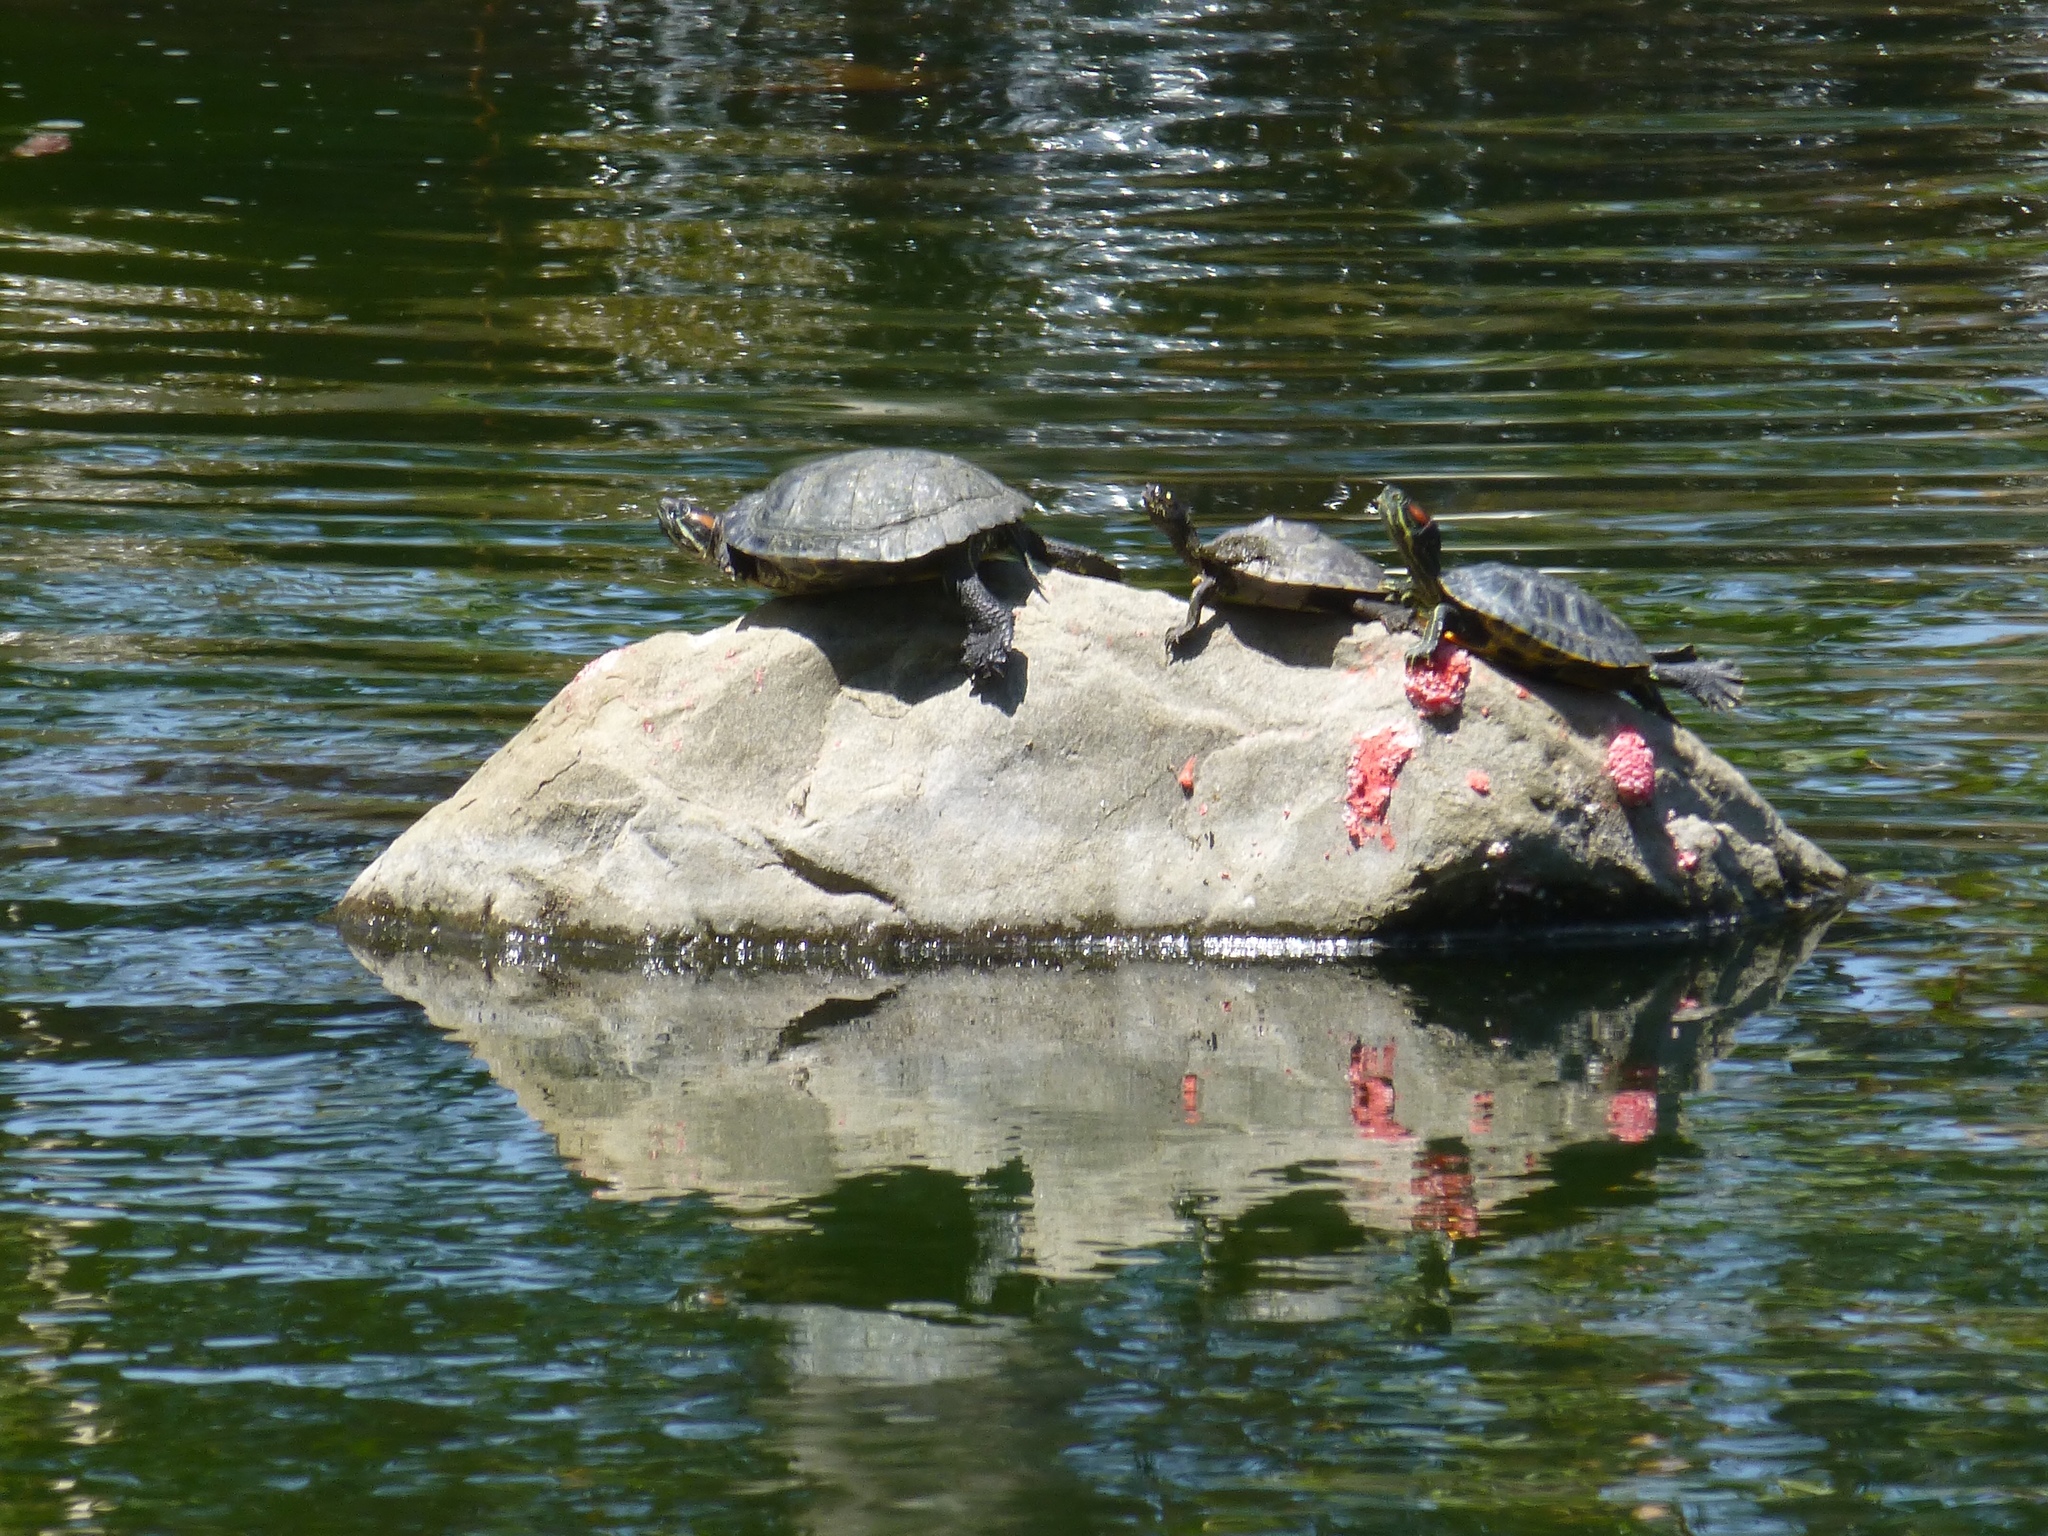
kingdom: Animalia
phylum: Chordata
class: Testudines
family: Emydidae
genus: Trachemys
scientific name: Trachemys scripta
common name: Slider
